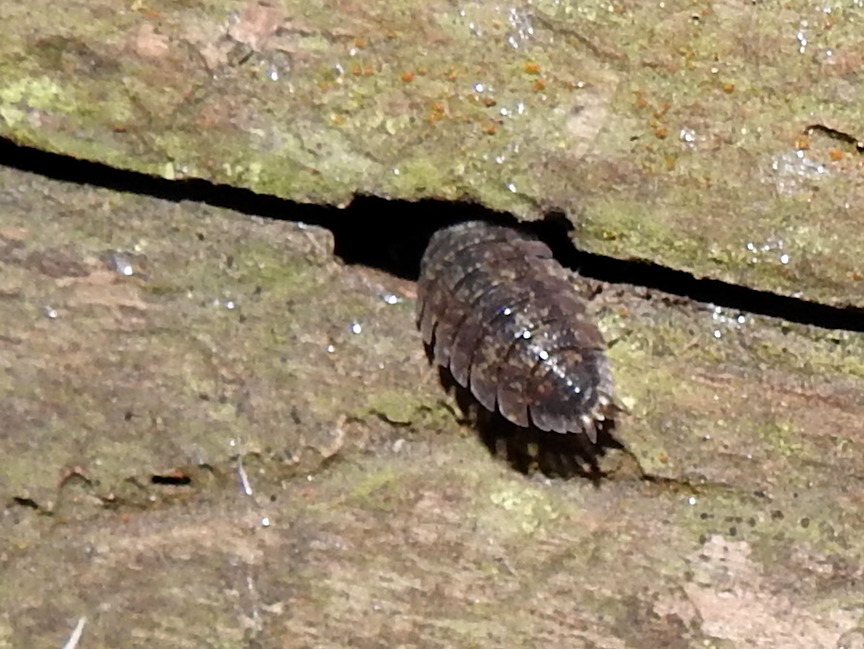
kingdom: Animalia
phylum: Arthropoda
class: Malacostraca
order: Isopoda
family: Porcellionidae
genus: Porcellio
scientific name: Porcellio scaber
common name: Common rough woodlouse
